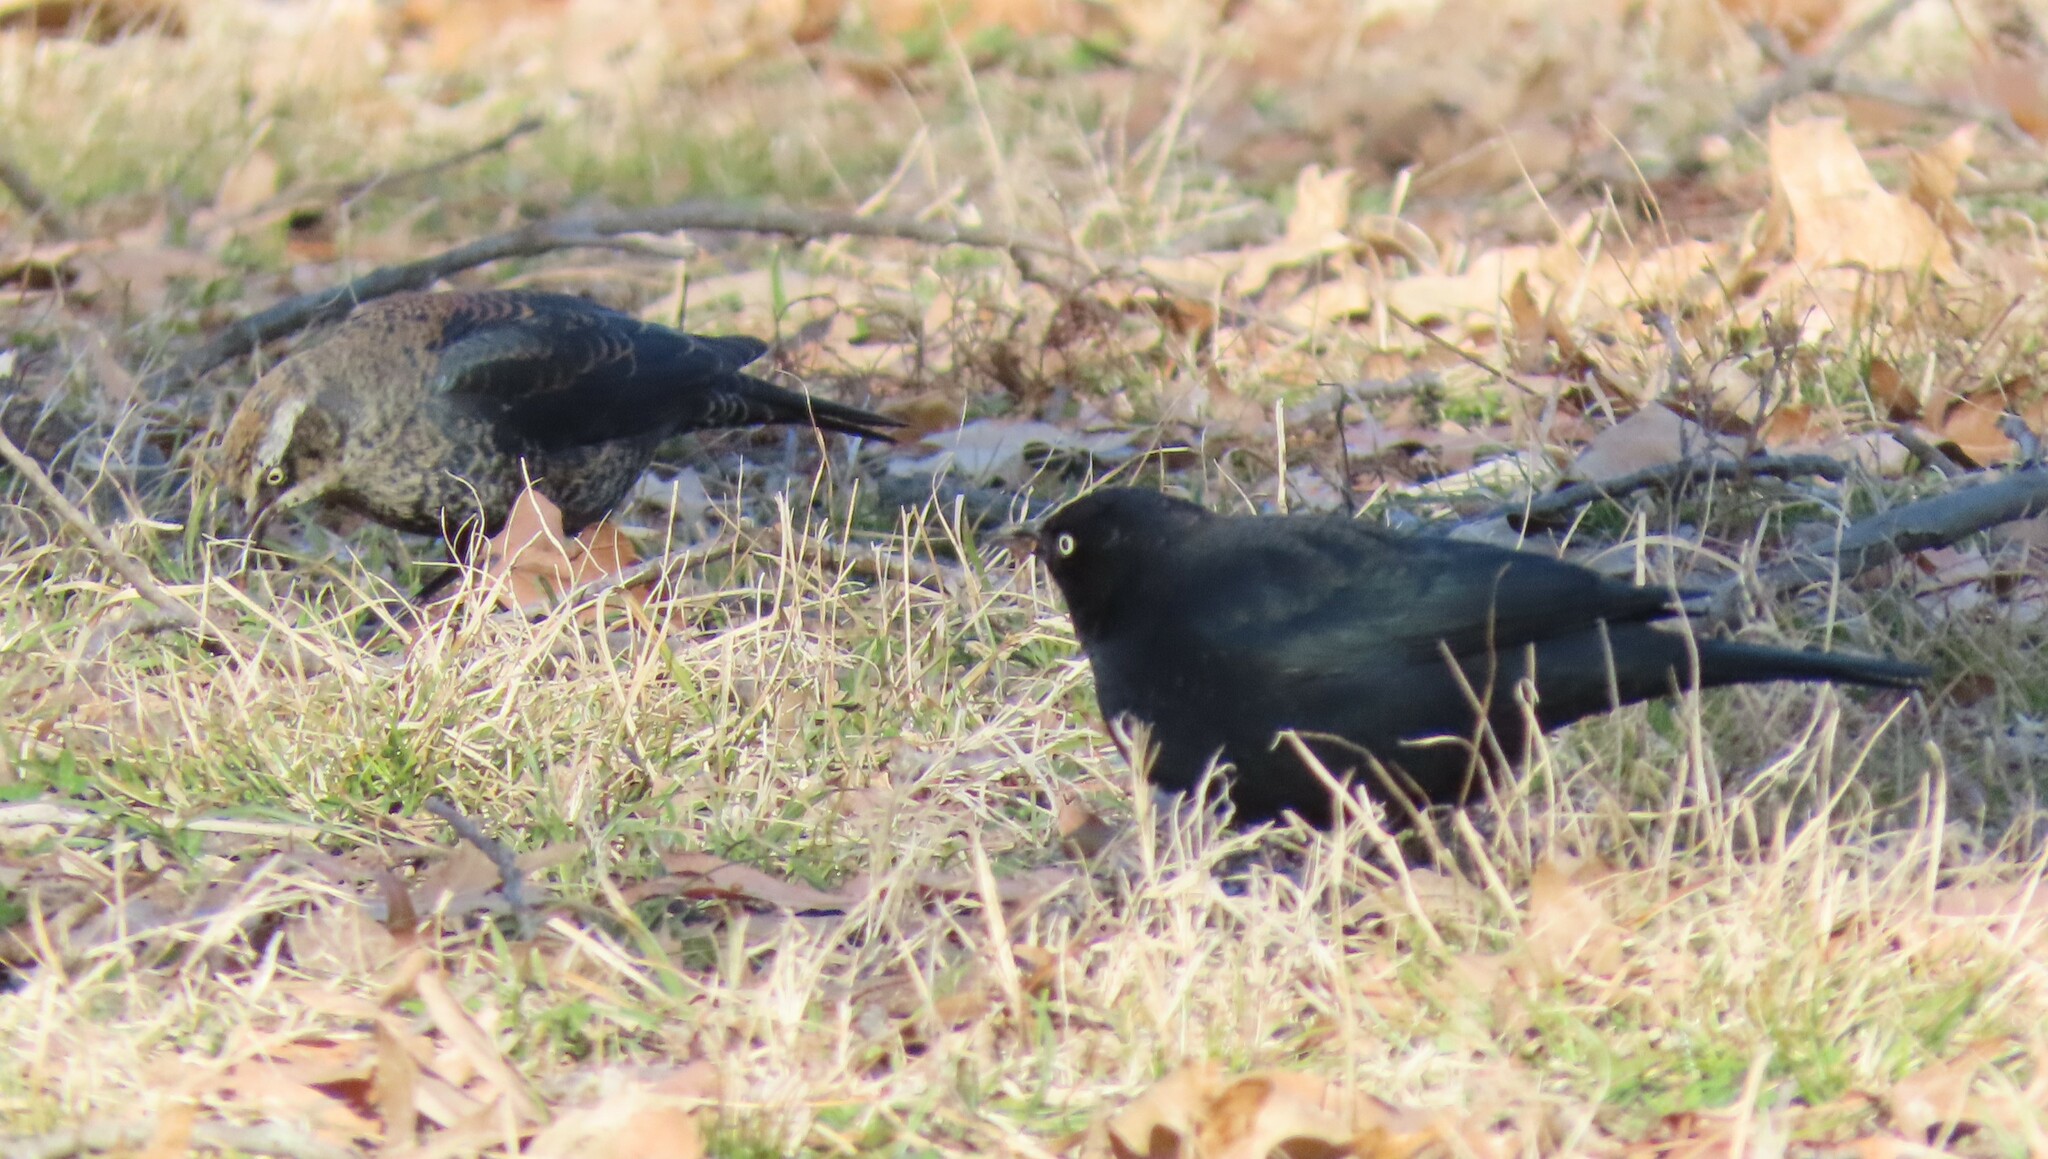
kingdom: Animalia
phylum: Chordata
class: Aves
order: Passeriformes
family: Icteridae
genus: Euphagus
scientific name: Euphagus carolinus
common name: Rusty blackbird
